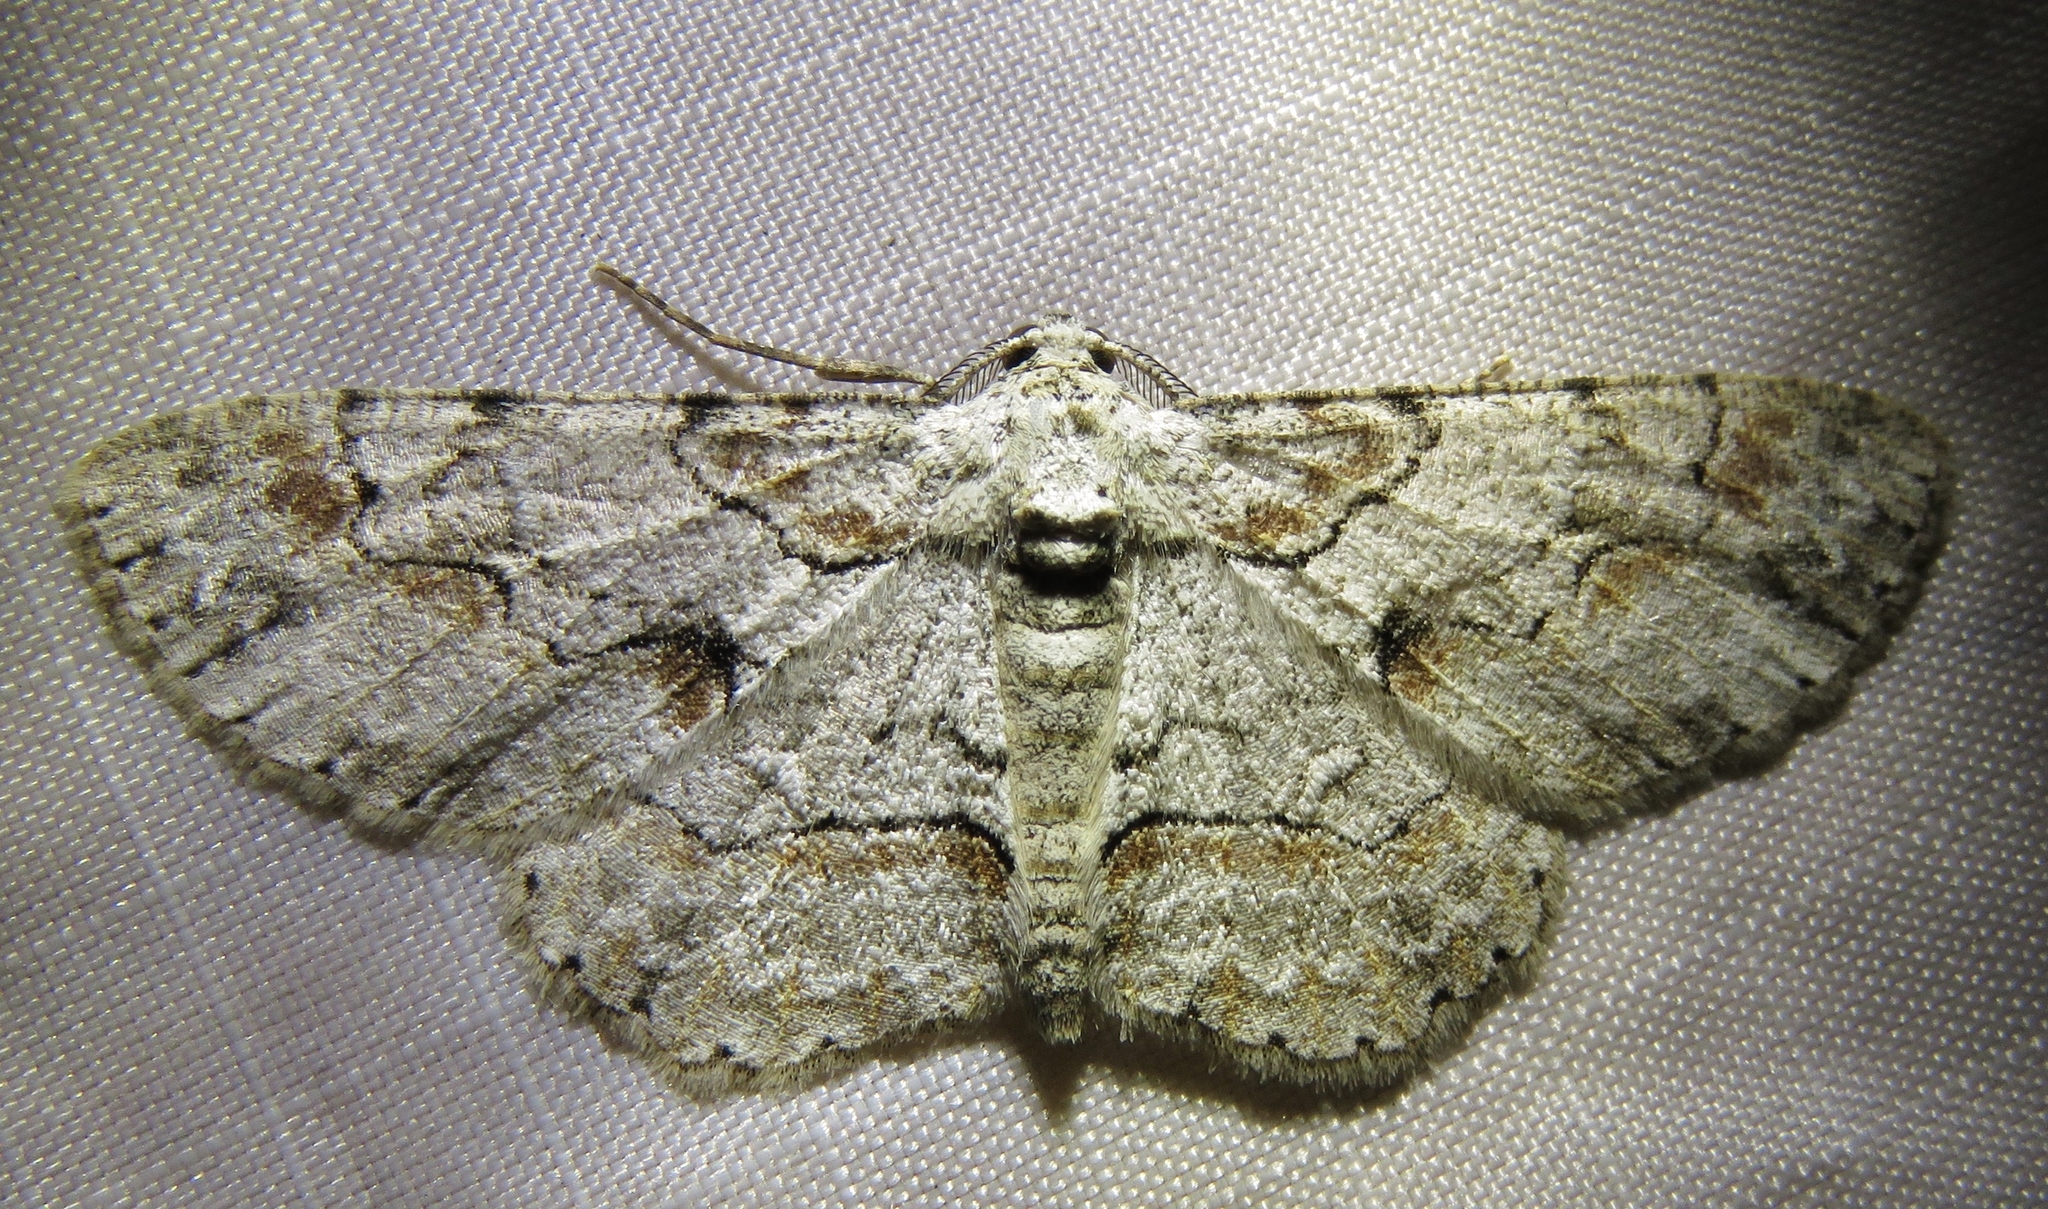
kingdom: Animalia
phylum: Arthropoda
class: Insecta
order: Lepidoptera
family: Geometridae
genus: Iridopsis
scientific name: Iridopsis defectaria
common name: Brown-shaded gray
